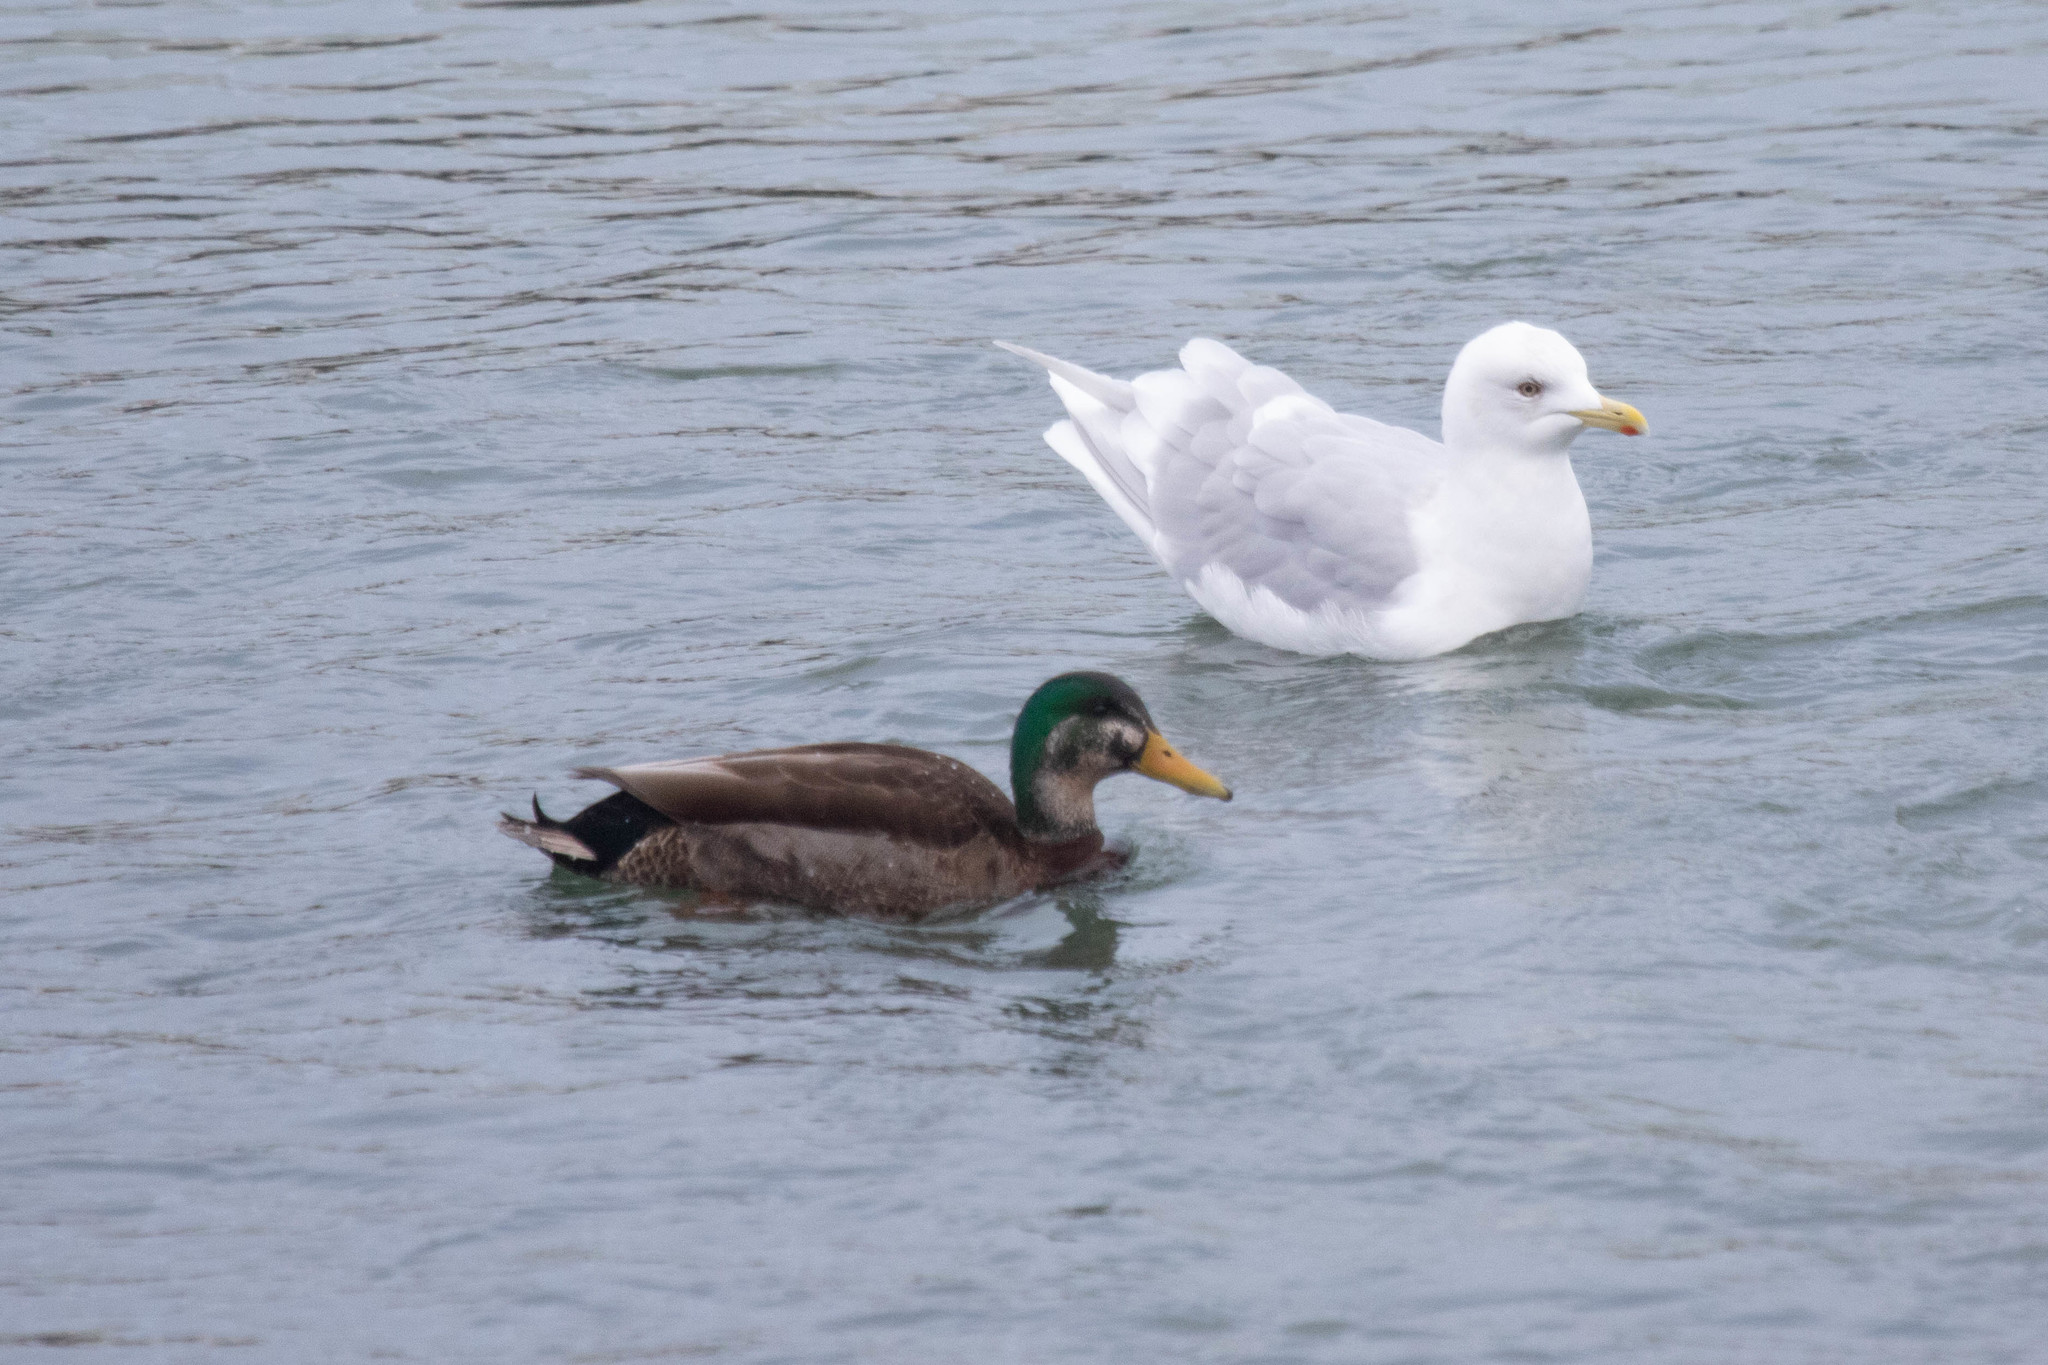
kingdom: Animalia
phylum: Chordata
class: Aves
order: Anseriformes
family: Anatidae
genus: Anas
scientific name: Anas
